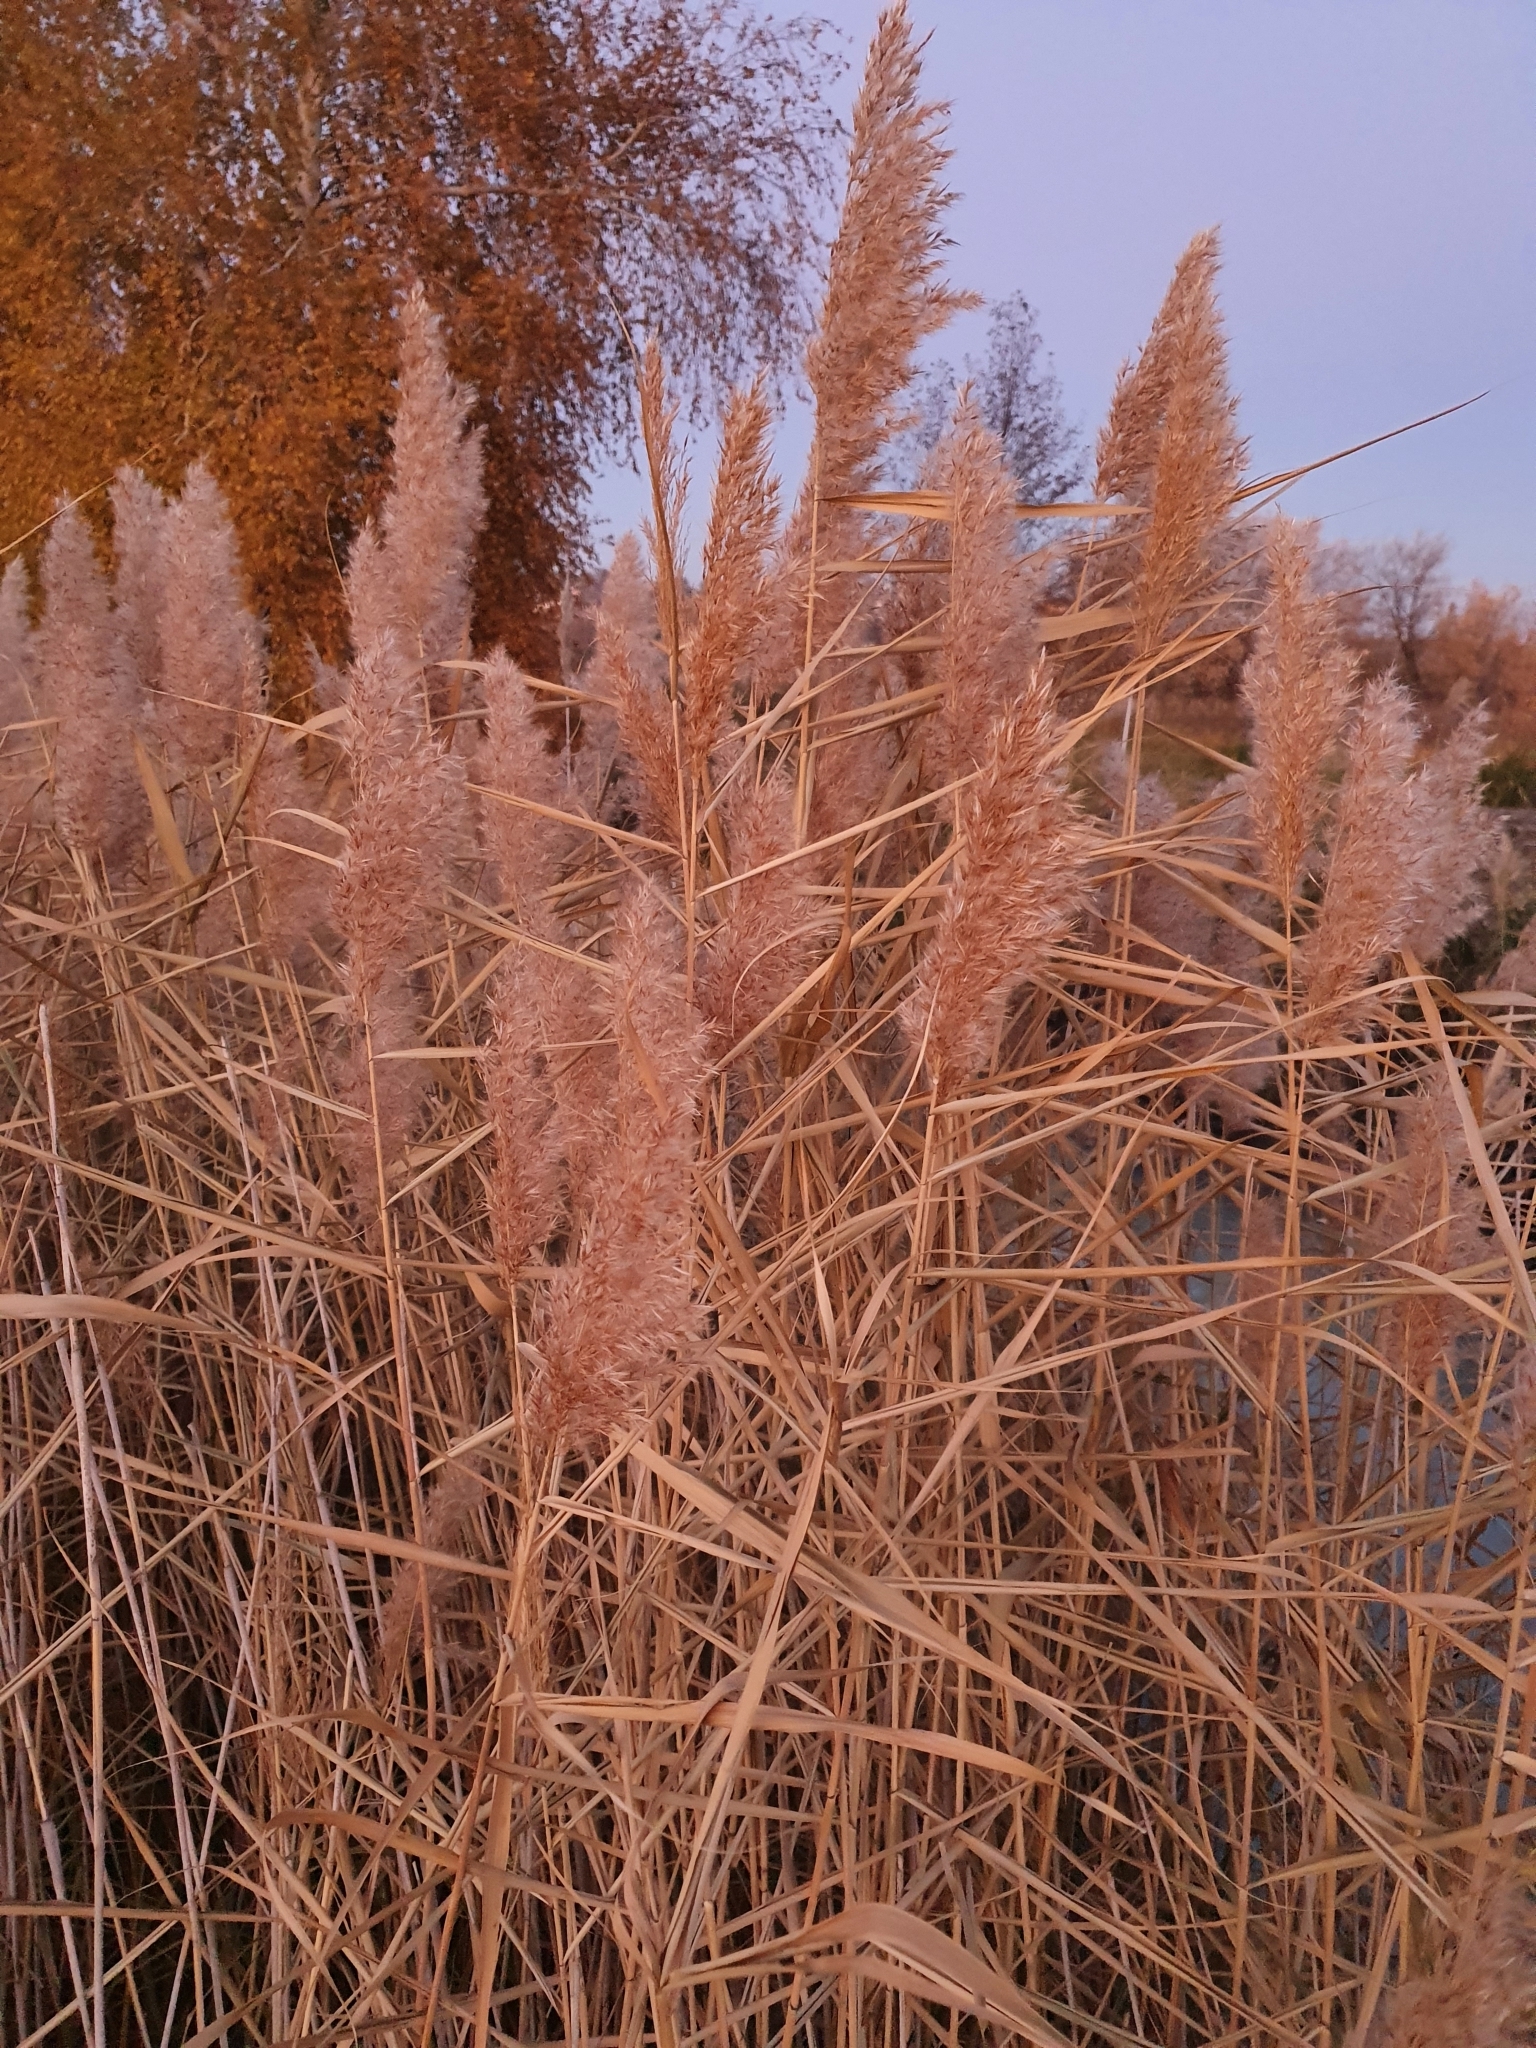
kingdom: Plantae
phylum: Tracheophyta
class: Liliopsida
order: Poales
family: Poaceae
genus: Phragmites
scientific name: Phragmites australis
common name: Common reed
